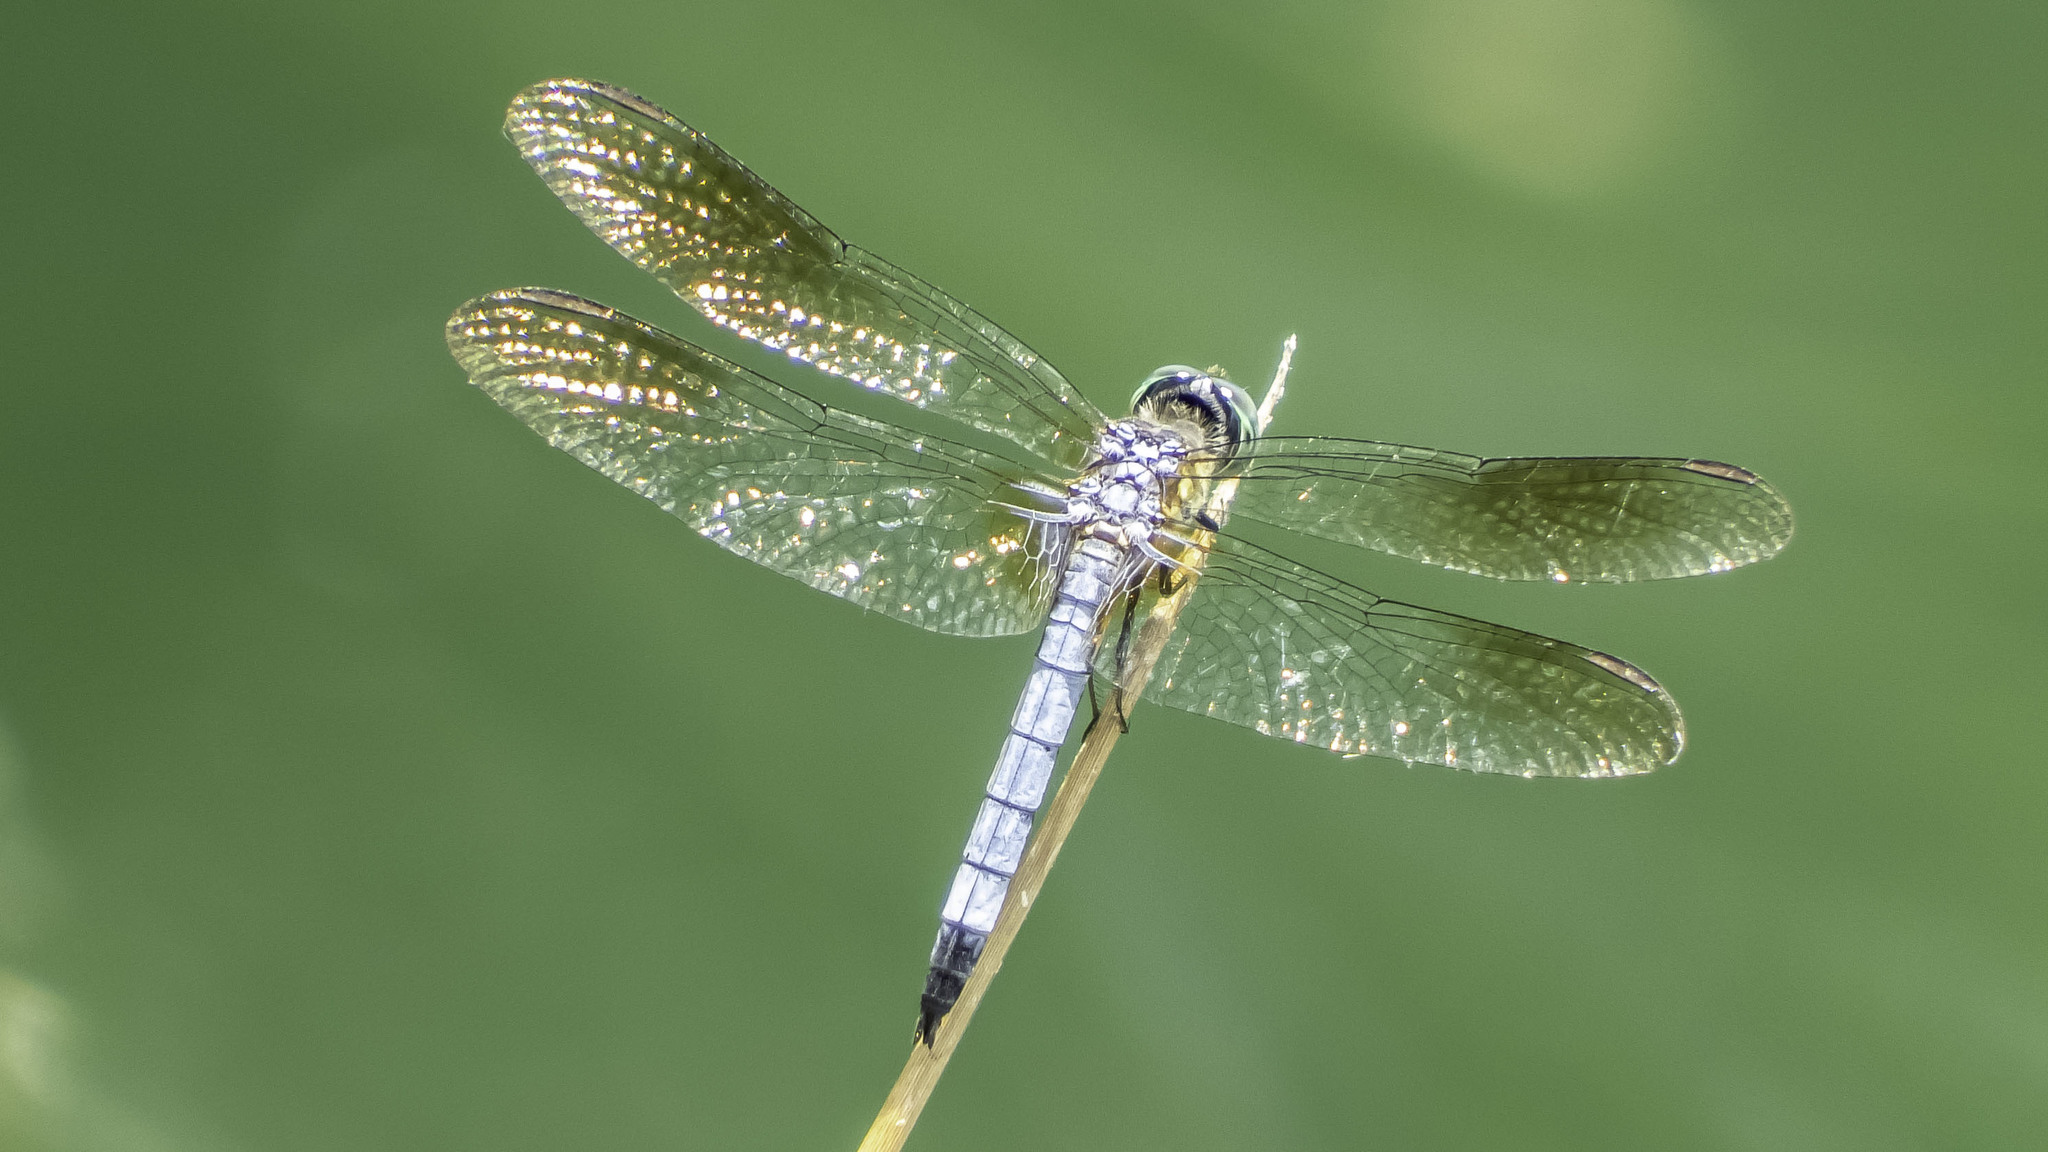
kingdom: Animalia
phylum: Arthropoda
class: Insecta
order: Odonata
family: Libellulidae
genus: Pachydiplax
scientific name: Pachydiplax longipennis
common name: Blue dasher
